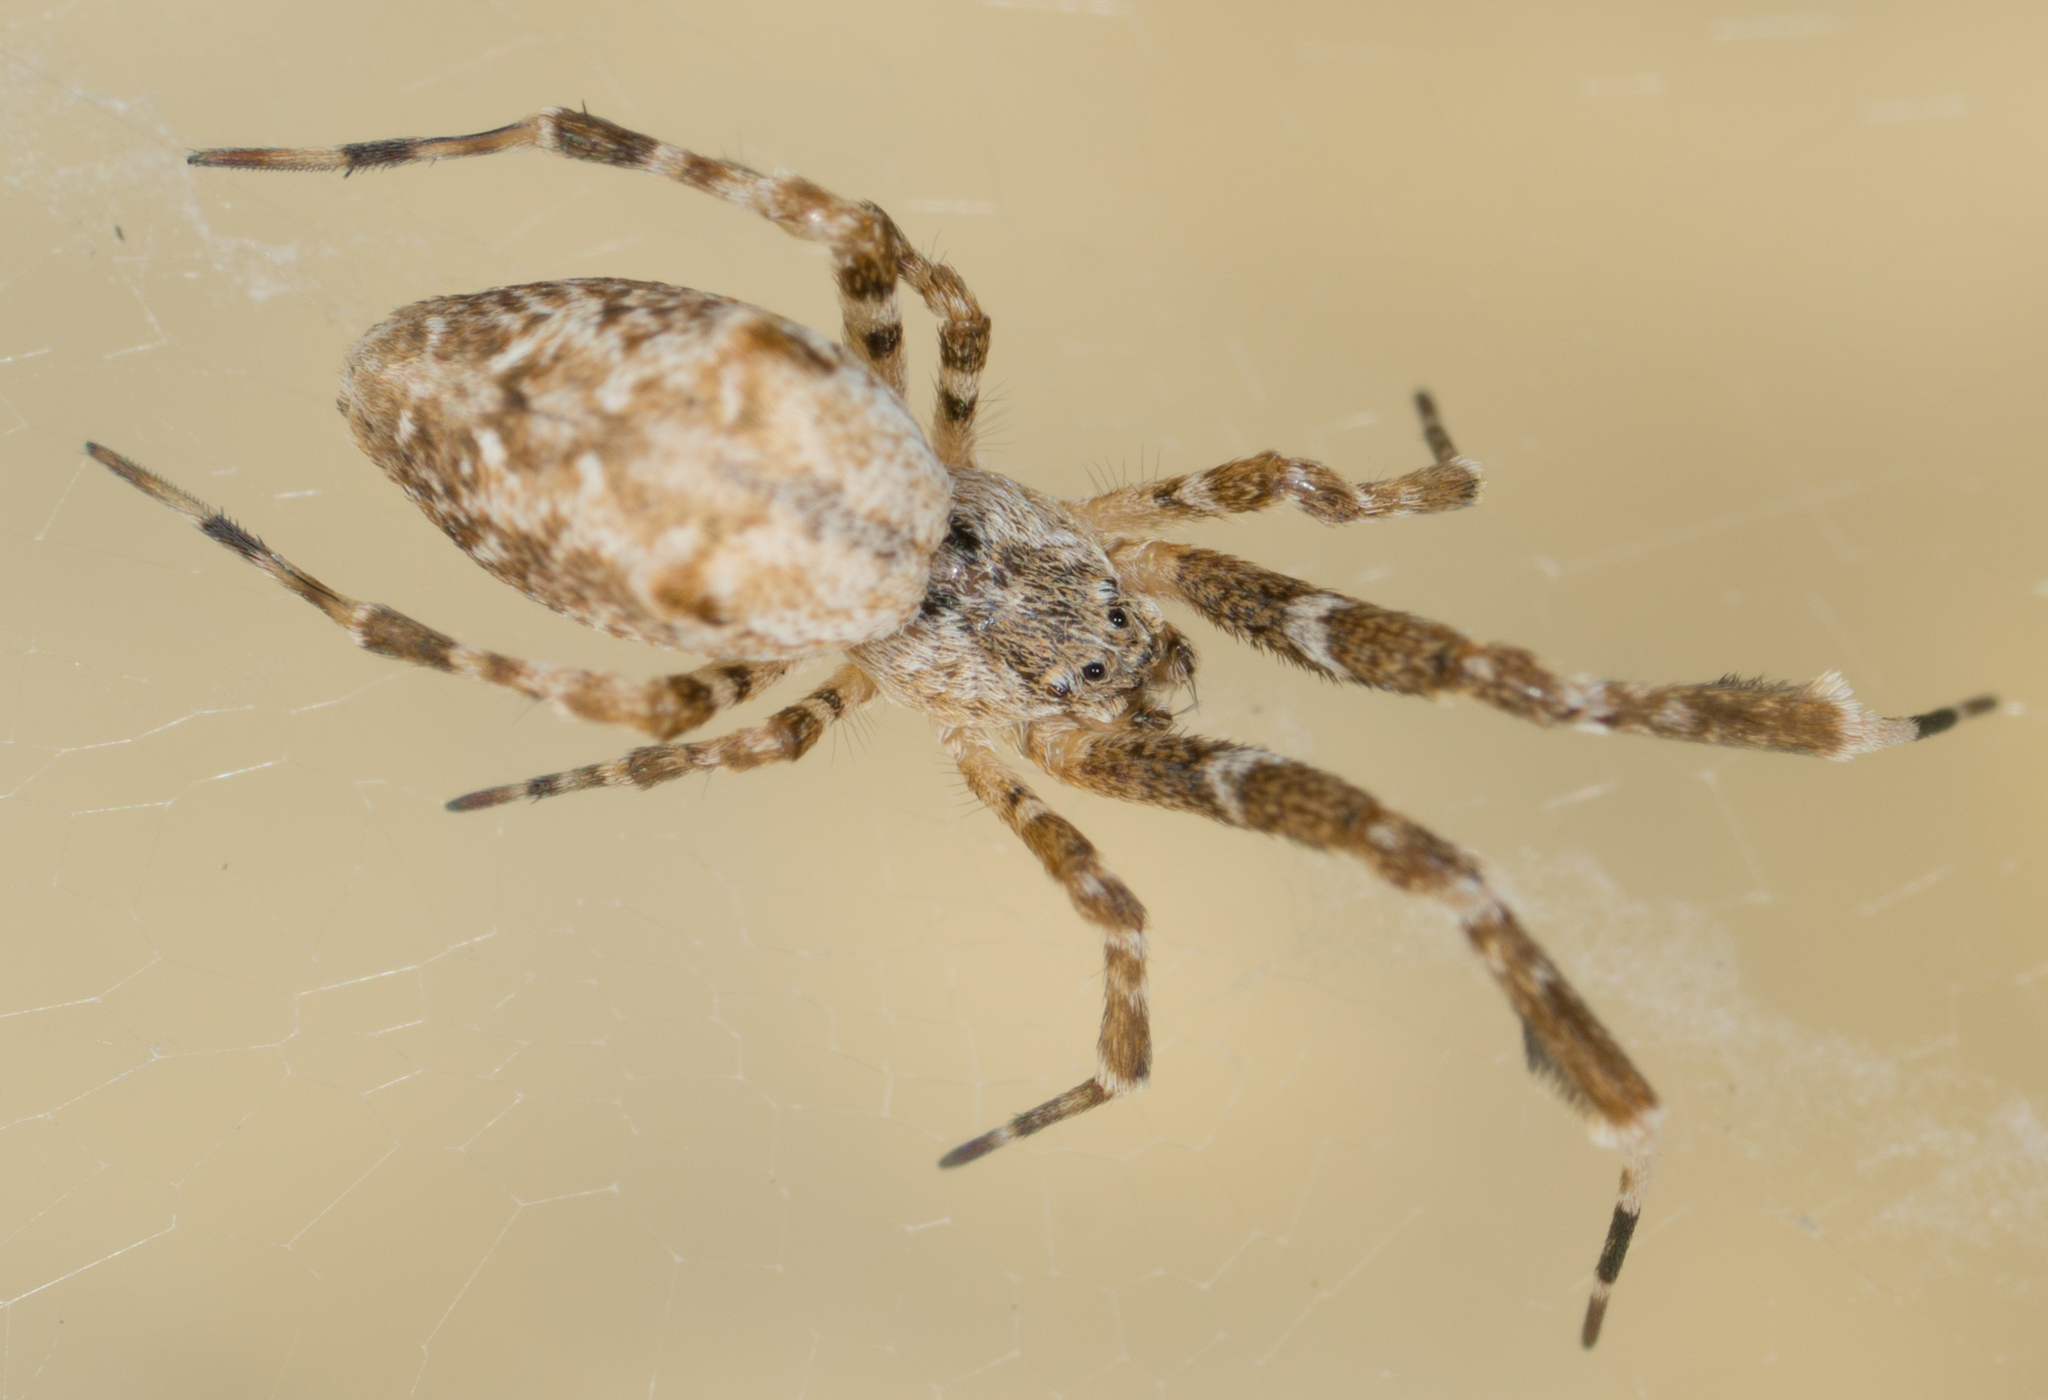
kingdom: Animalia
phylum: Arthropoda
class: Arachnida
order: Araneae
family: Uloboridae
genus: Uloborus
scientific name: Uloborus diversus
